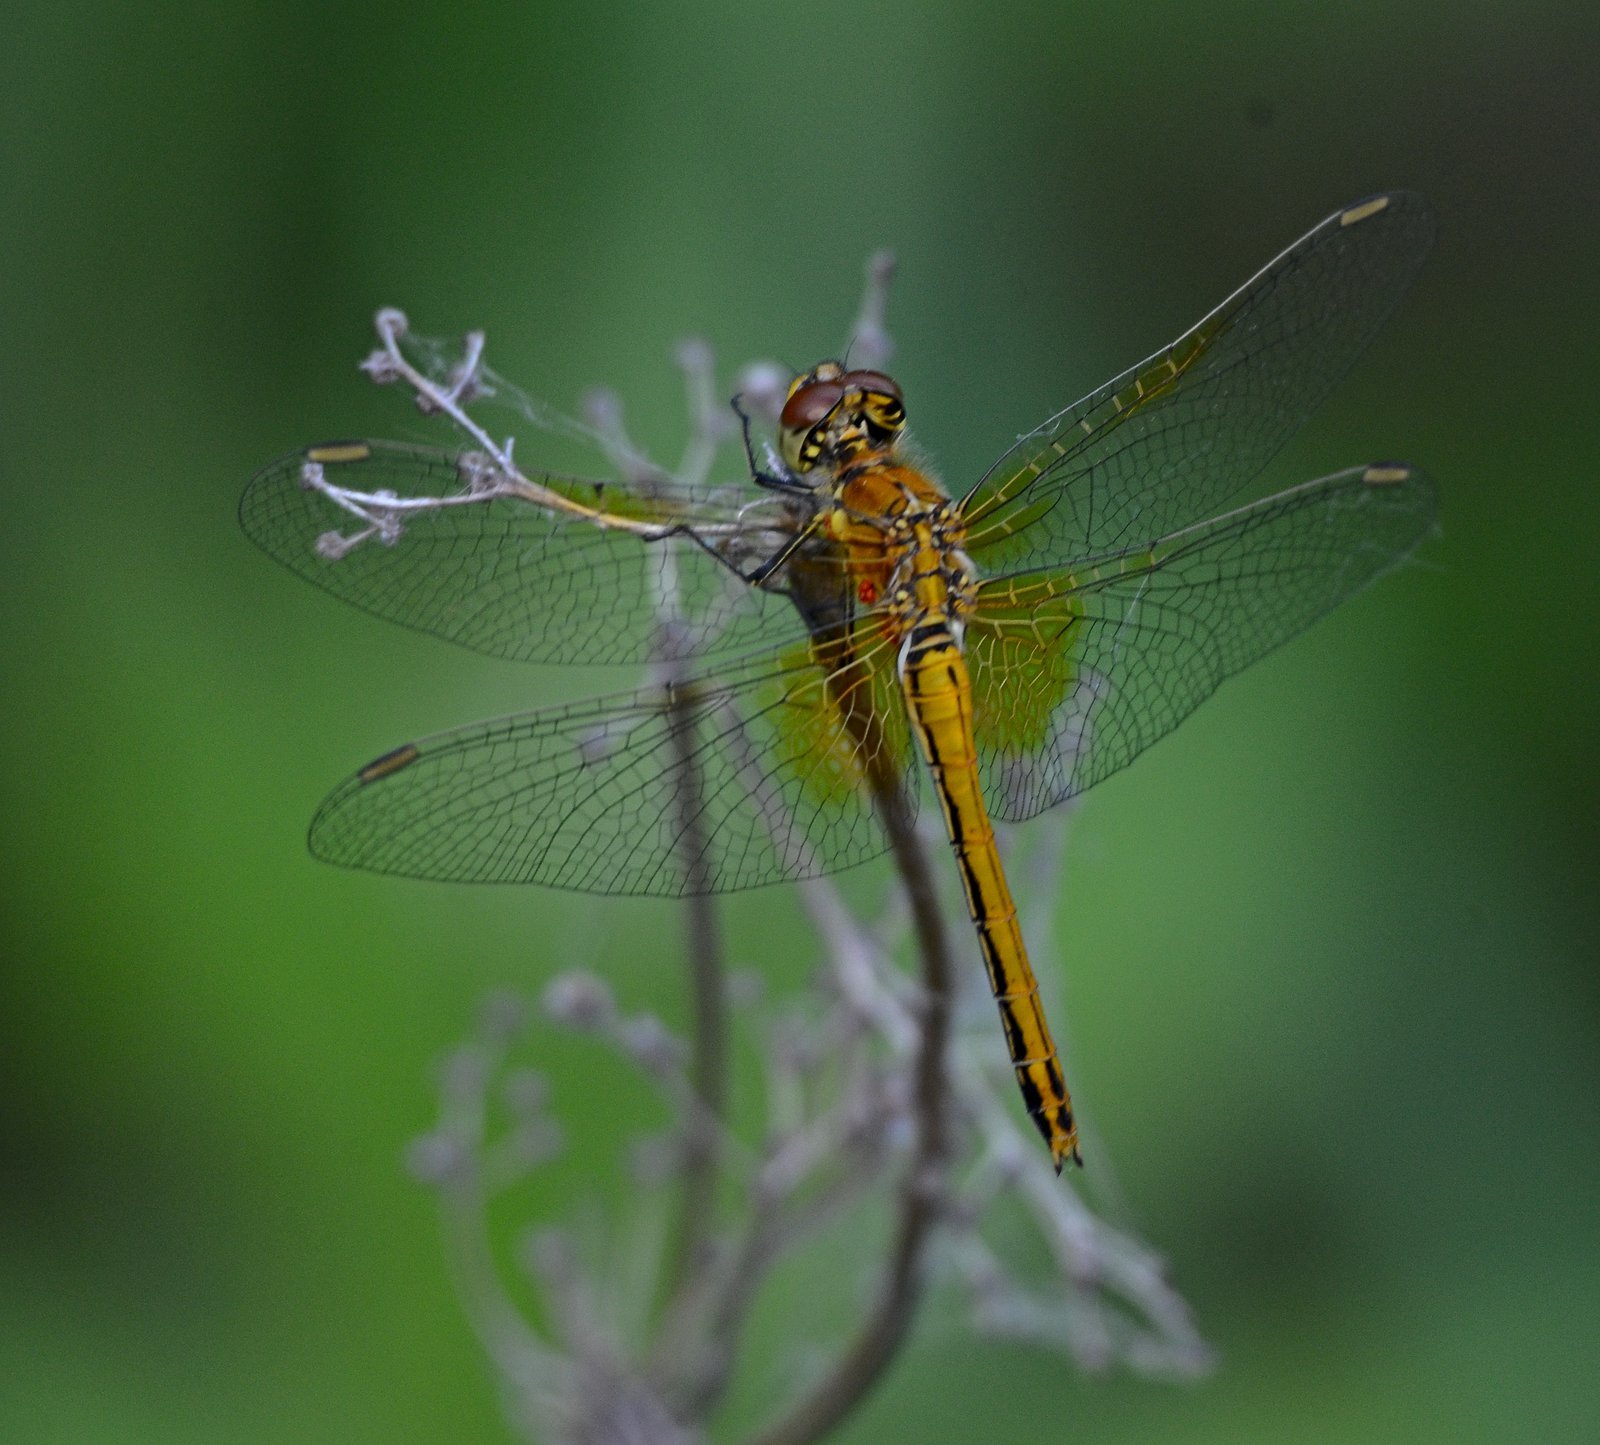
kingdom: Animalia
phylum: Arthropoda
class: Insecta
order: Odonata
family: Libellulidae
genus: Sympetrum
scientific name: Sympetrum flaveolum
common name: Yellow-winged darter
